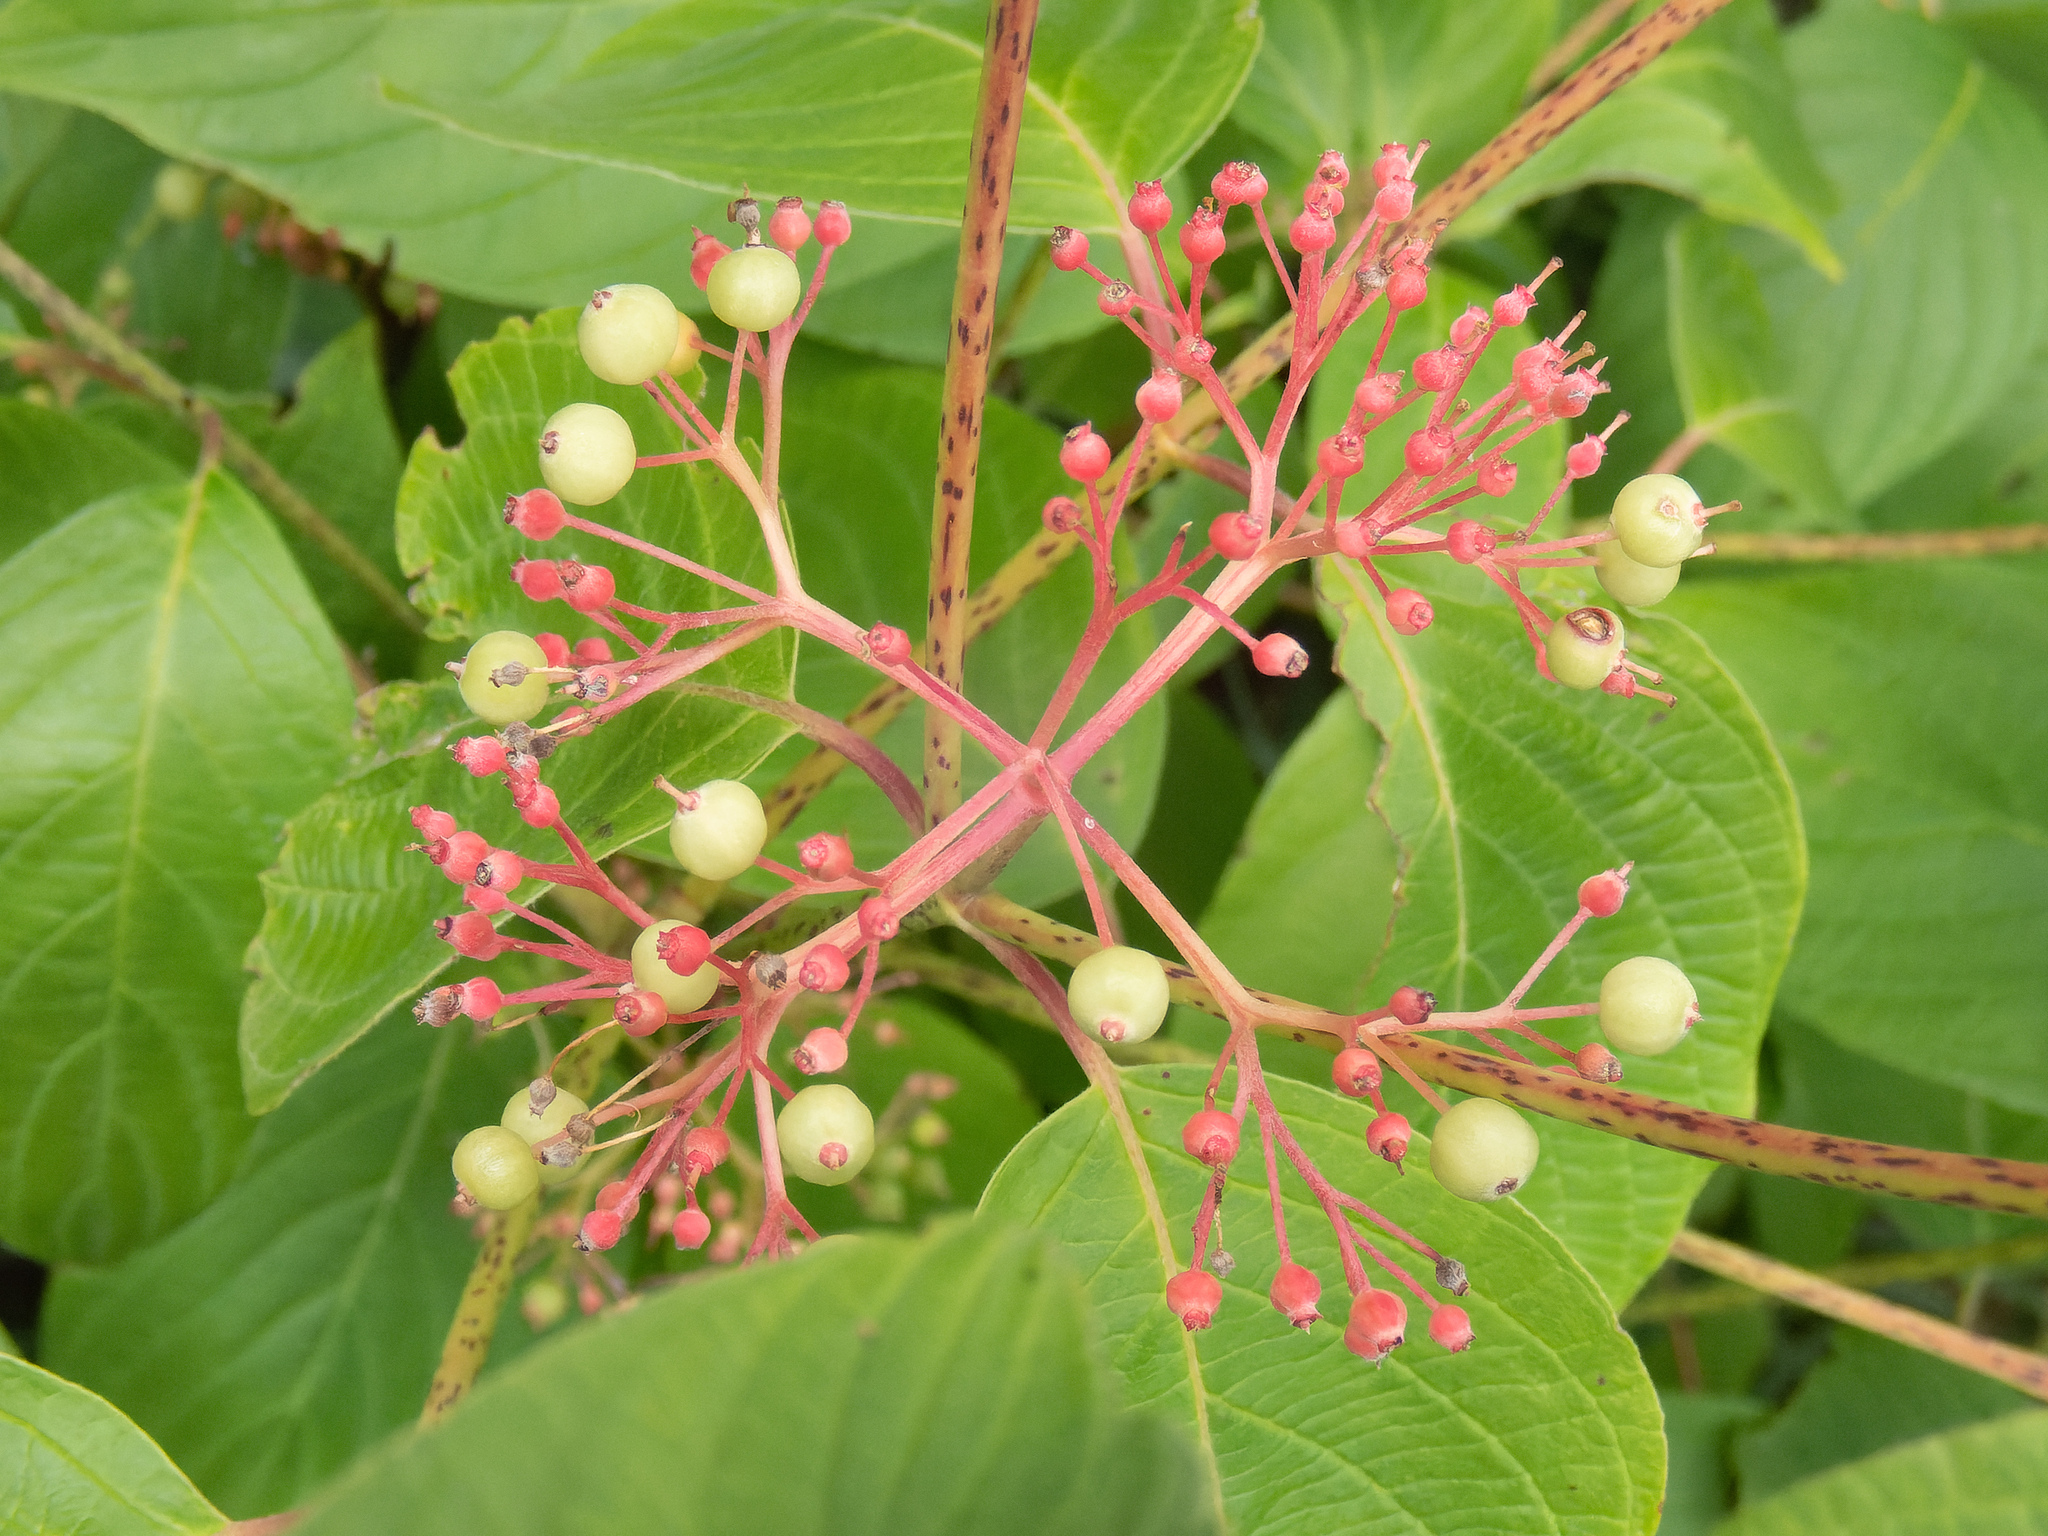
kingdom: Plantae
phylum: Tracheophyta
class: Magnoliopsida
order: Cornales
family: Cornaceae
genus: Cornus
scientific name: Cornus rugosa
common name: Round-leaf dogwood
